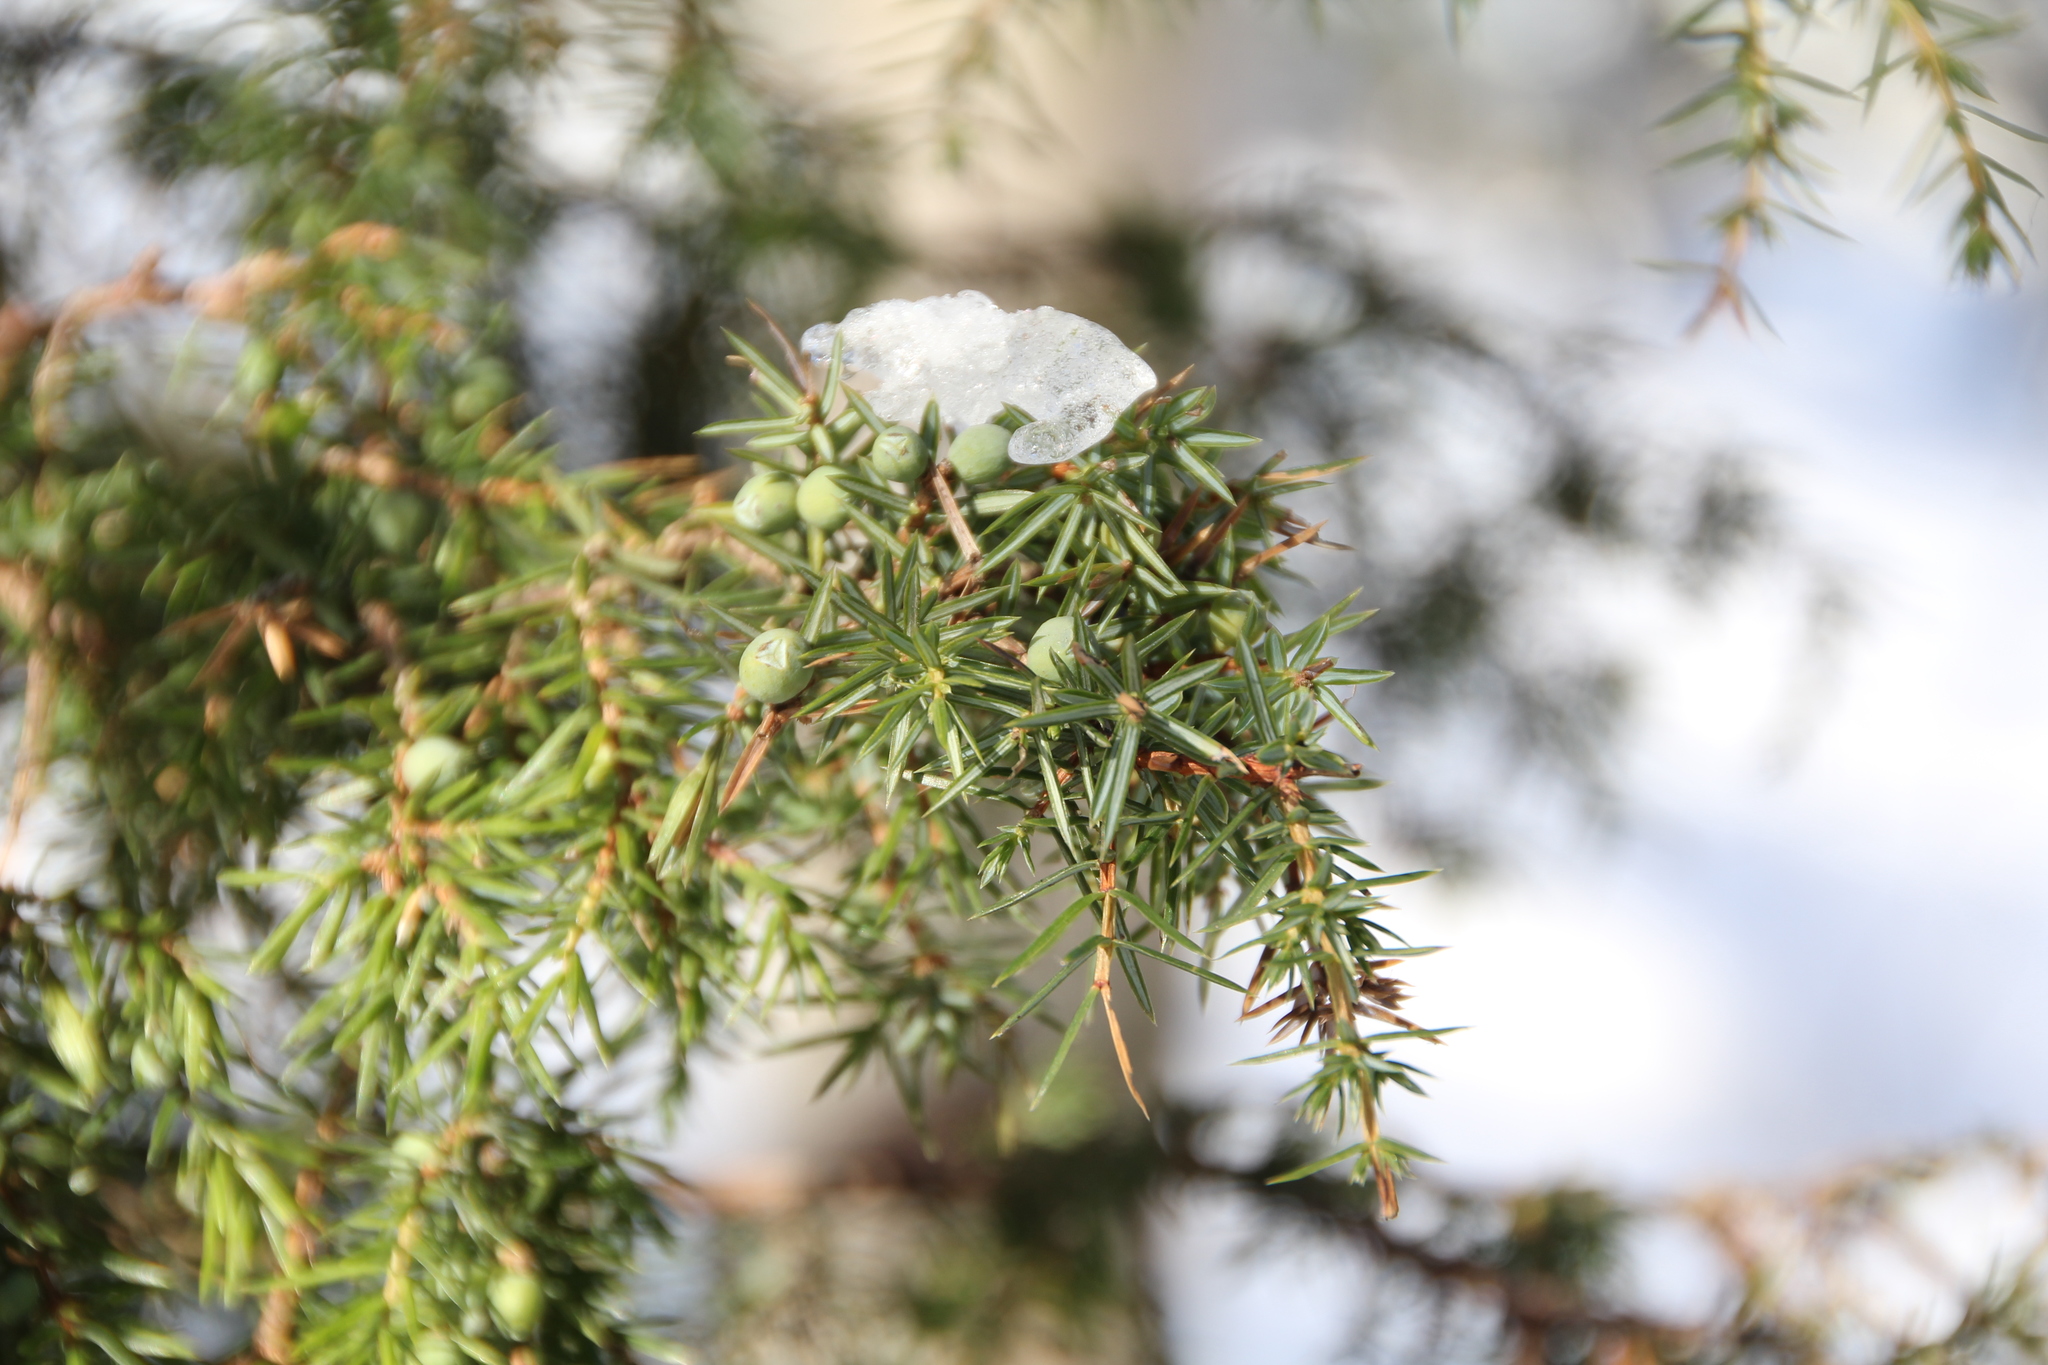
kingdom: Plantae
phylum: Tracheophyta
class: Pinopsida
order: Pinales
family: Cupressaceae
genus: Juniperus
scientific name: Juniperus communis
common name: Common juniper
